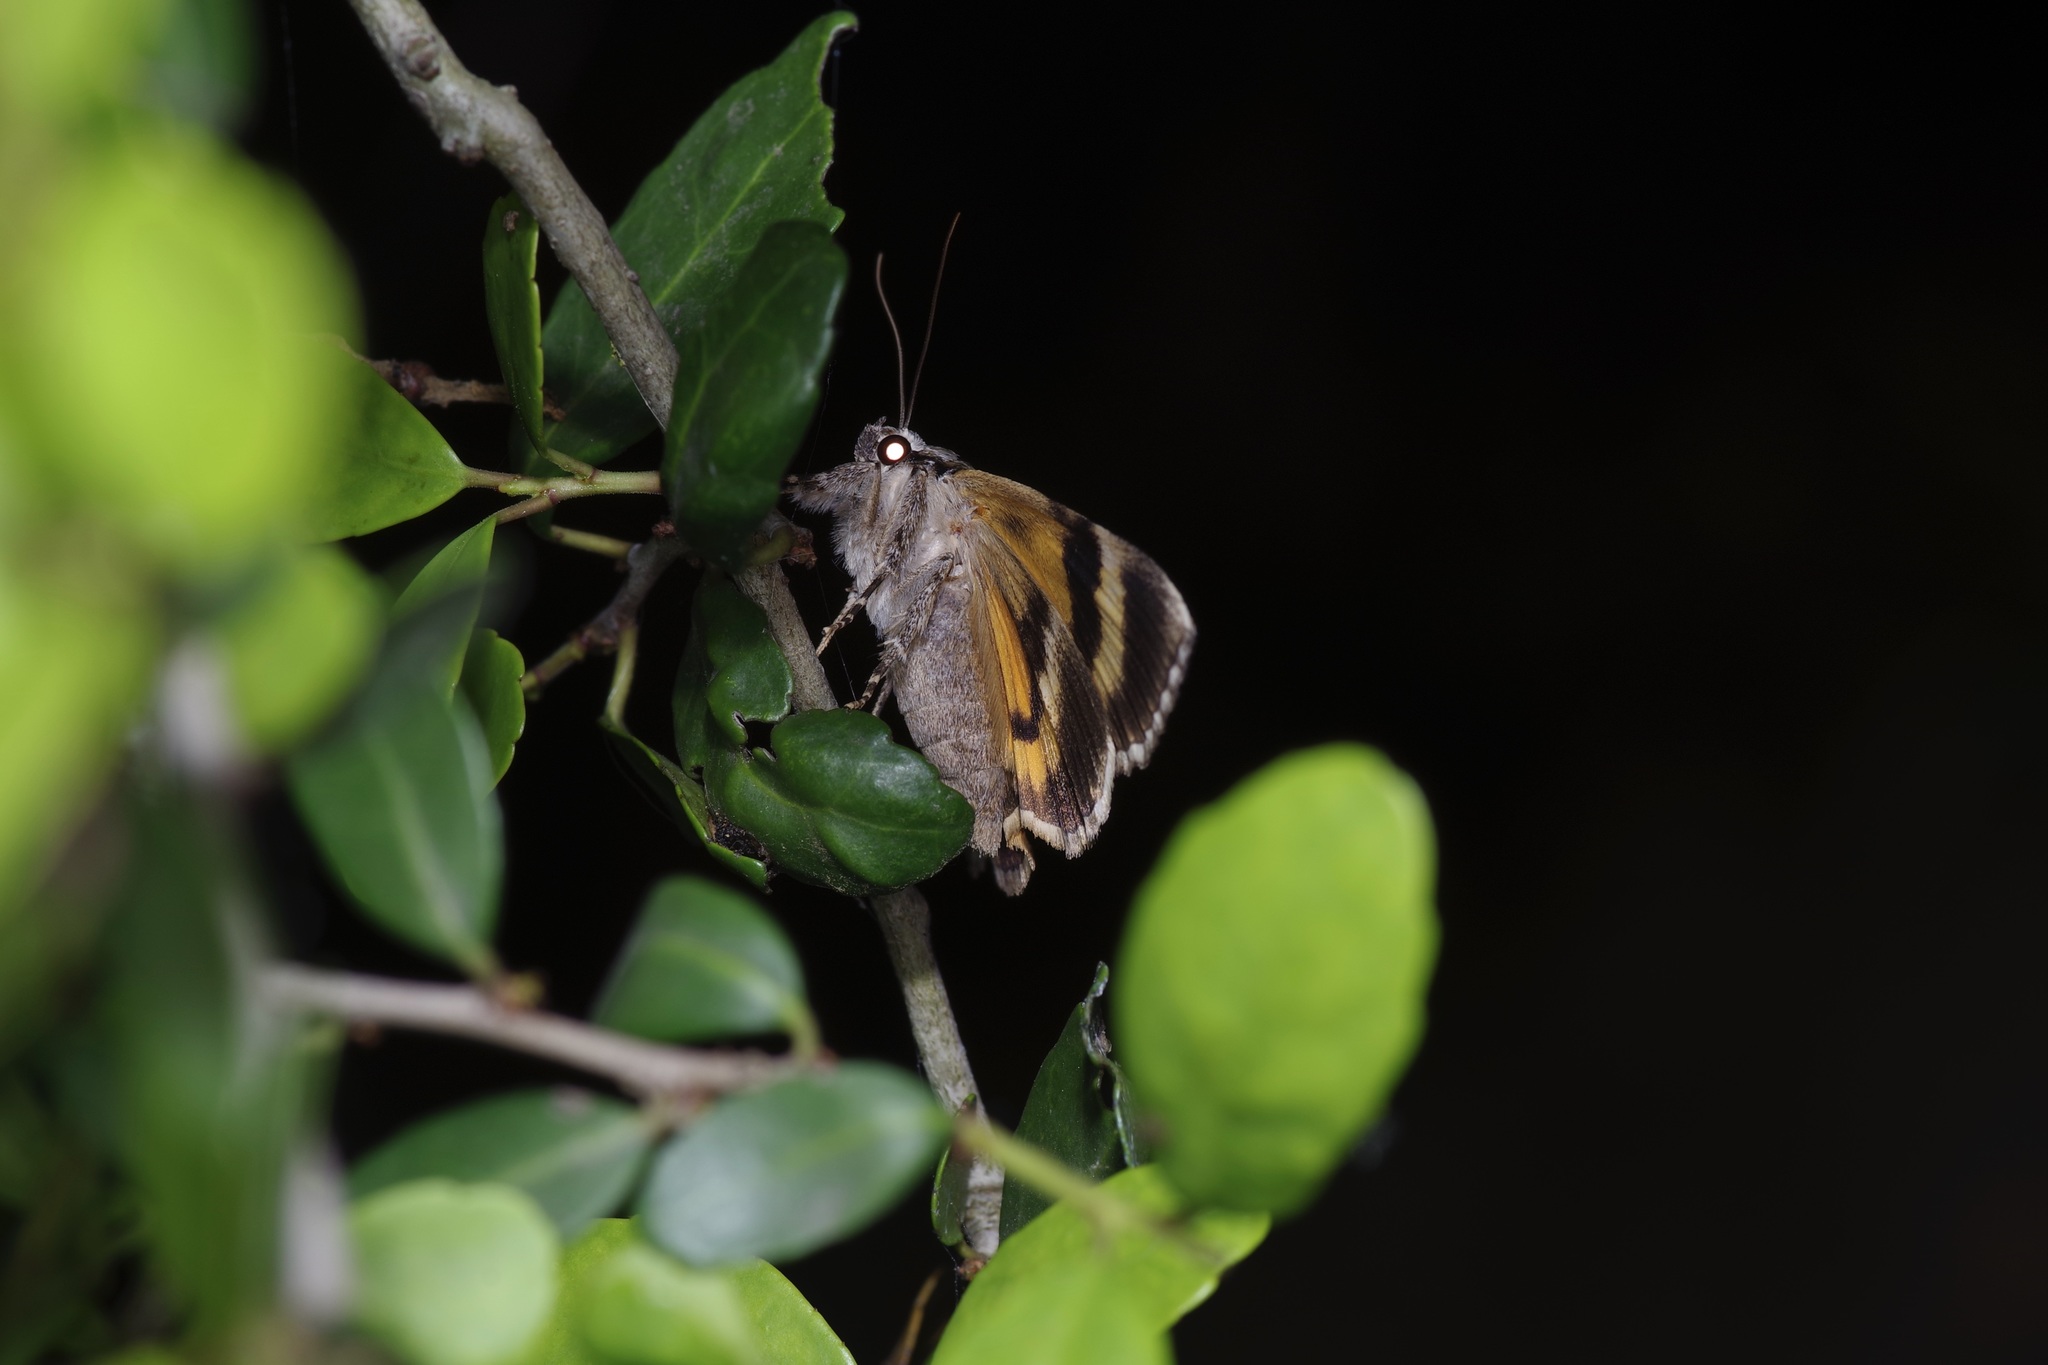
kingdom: Animalia
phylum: Arthropoda
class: Insecta
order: Lepidoptera
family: Erebidae
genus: Catocala
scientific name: Catocala micronympha
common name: Little nymph underwing
